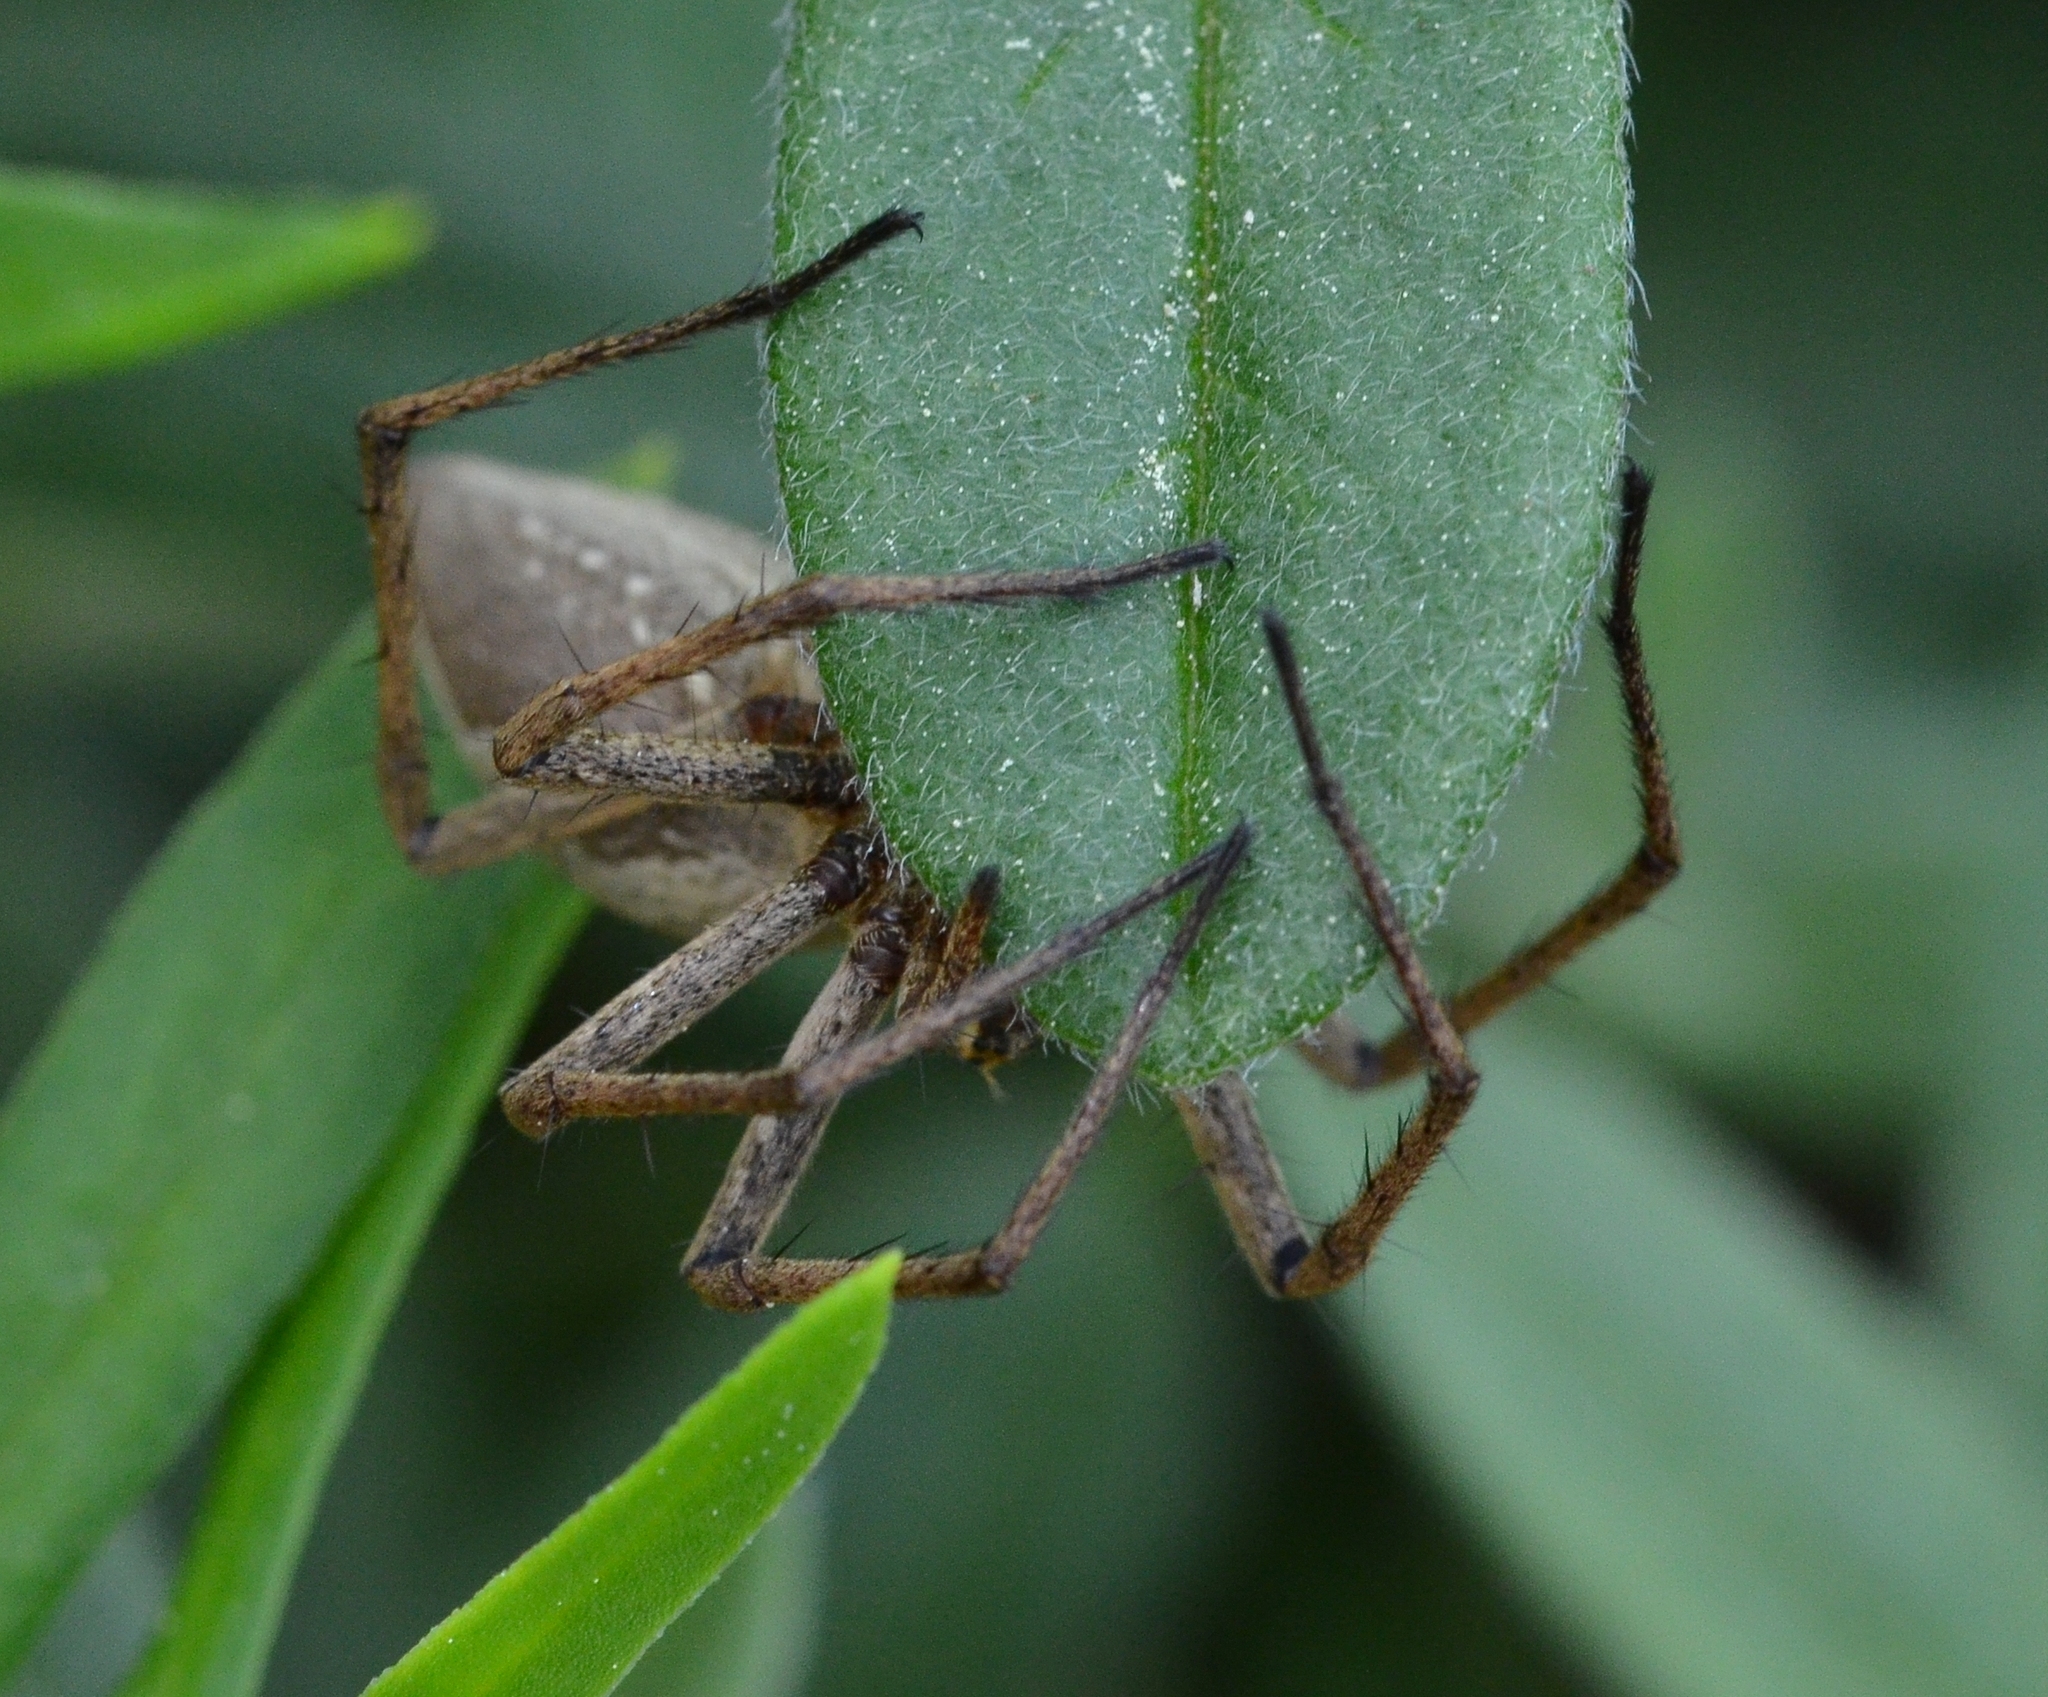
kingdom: Animalia
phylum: Arthropoda
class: Arachnida
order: Araneae
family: Pisauridae
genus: Pisaura
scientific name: Pisaura mirabilis
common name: Tent spider
